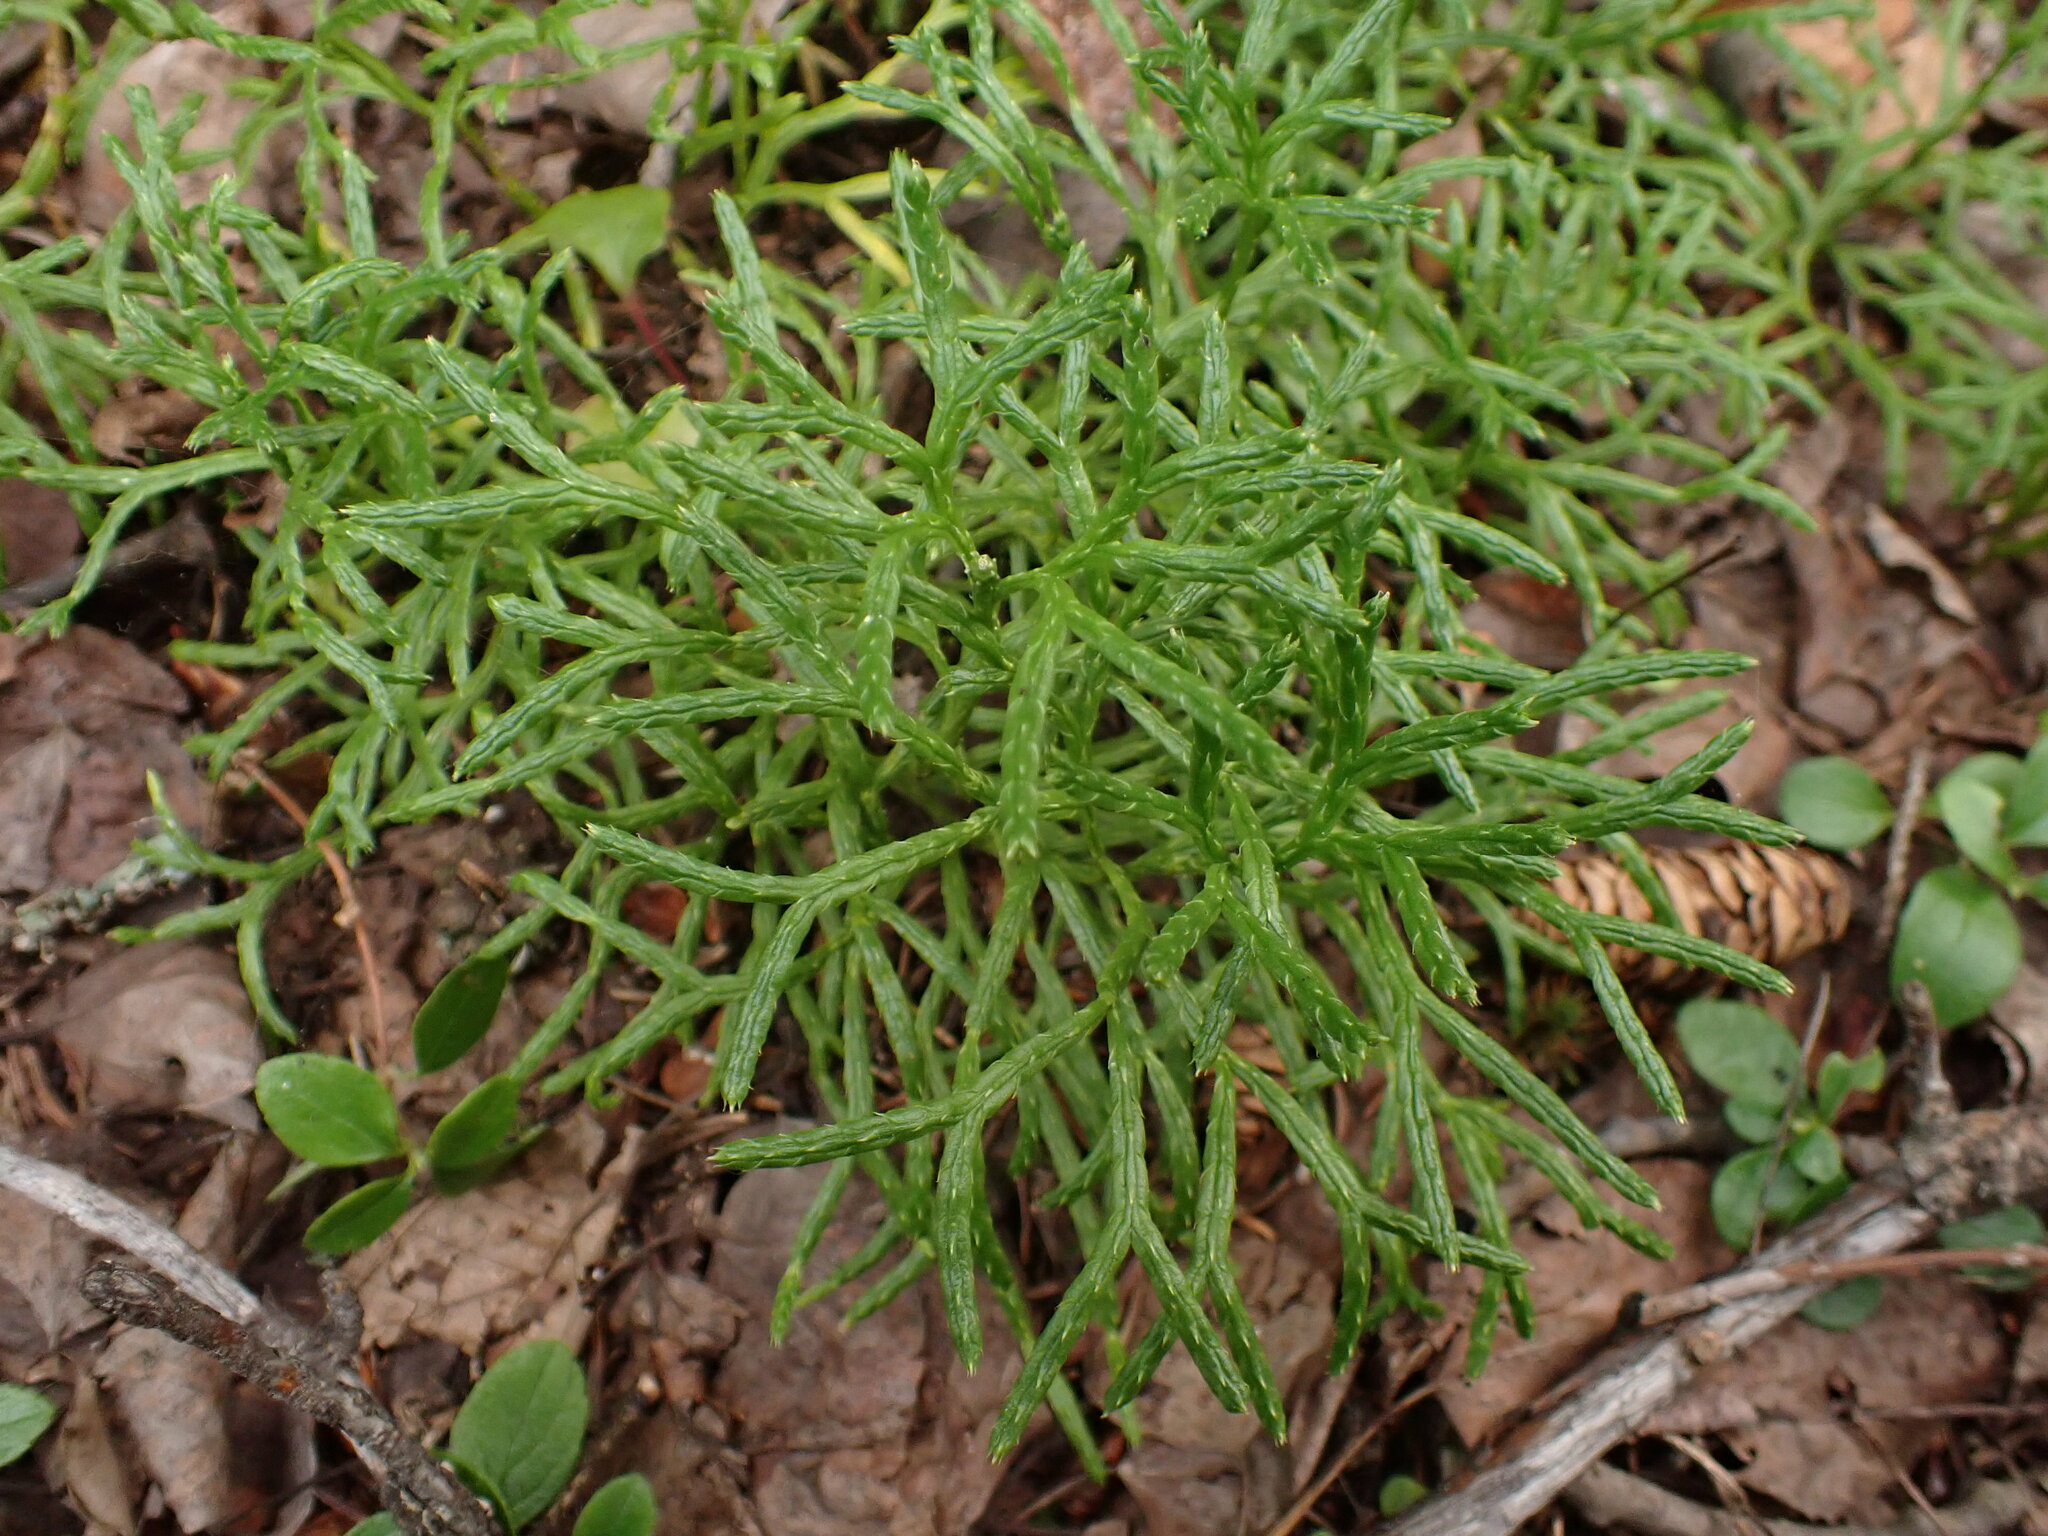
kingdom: Plantae
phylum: Tracheophyta
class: Lycopodiopsida
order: Lycopodiales
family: Lycopodiaceae
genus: Diphasiastrum
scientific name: Diphasiastrum complanatum
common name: Northern running-pine
